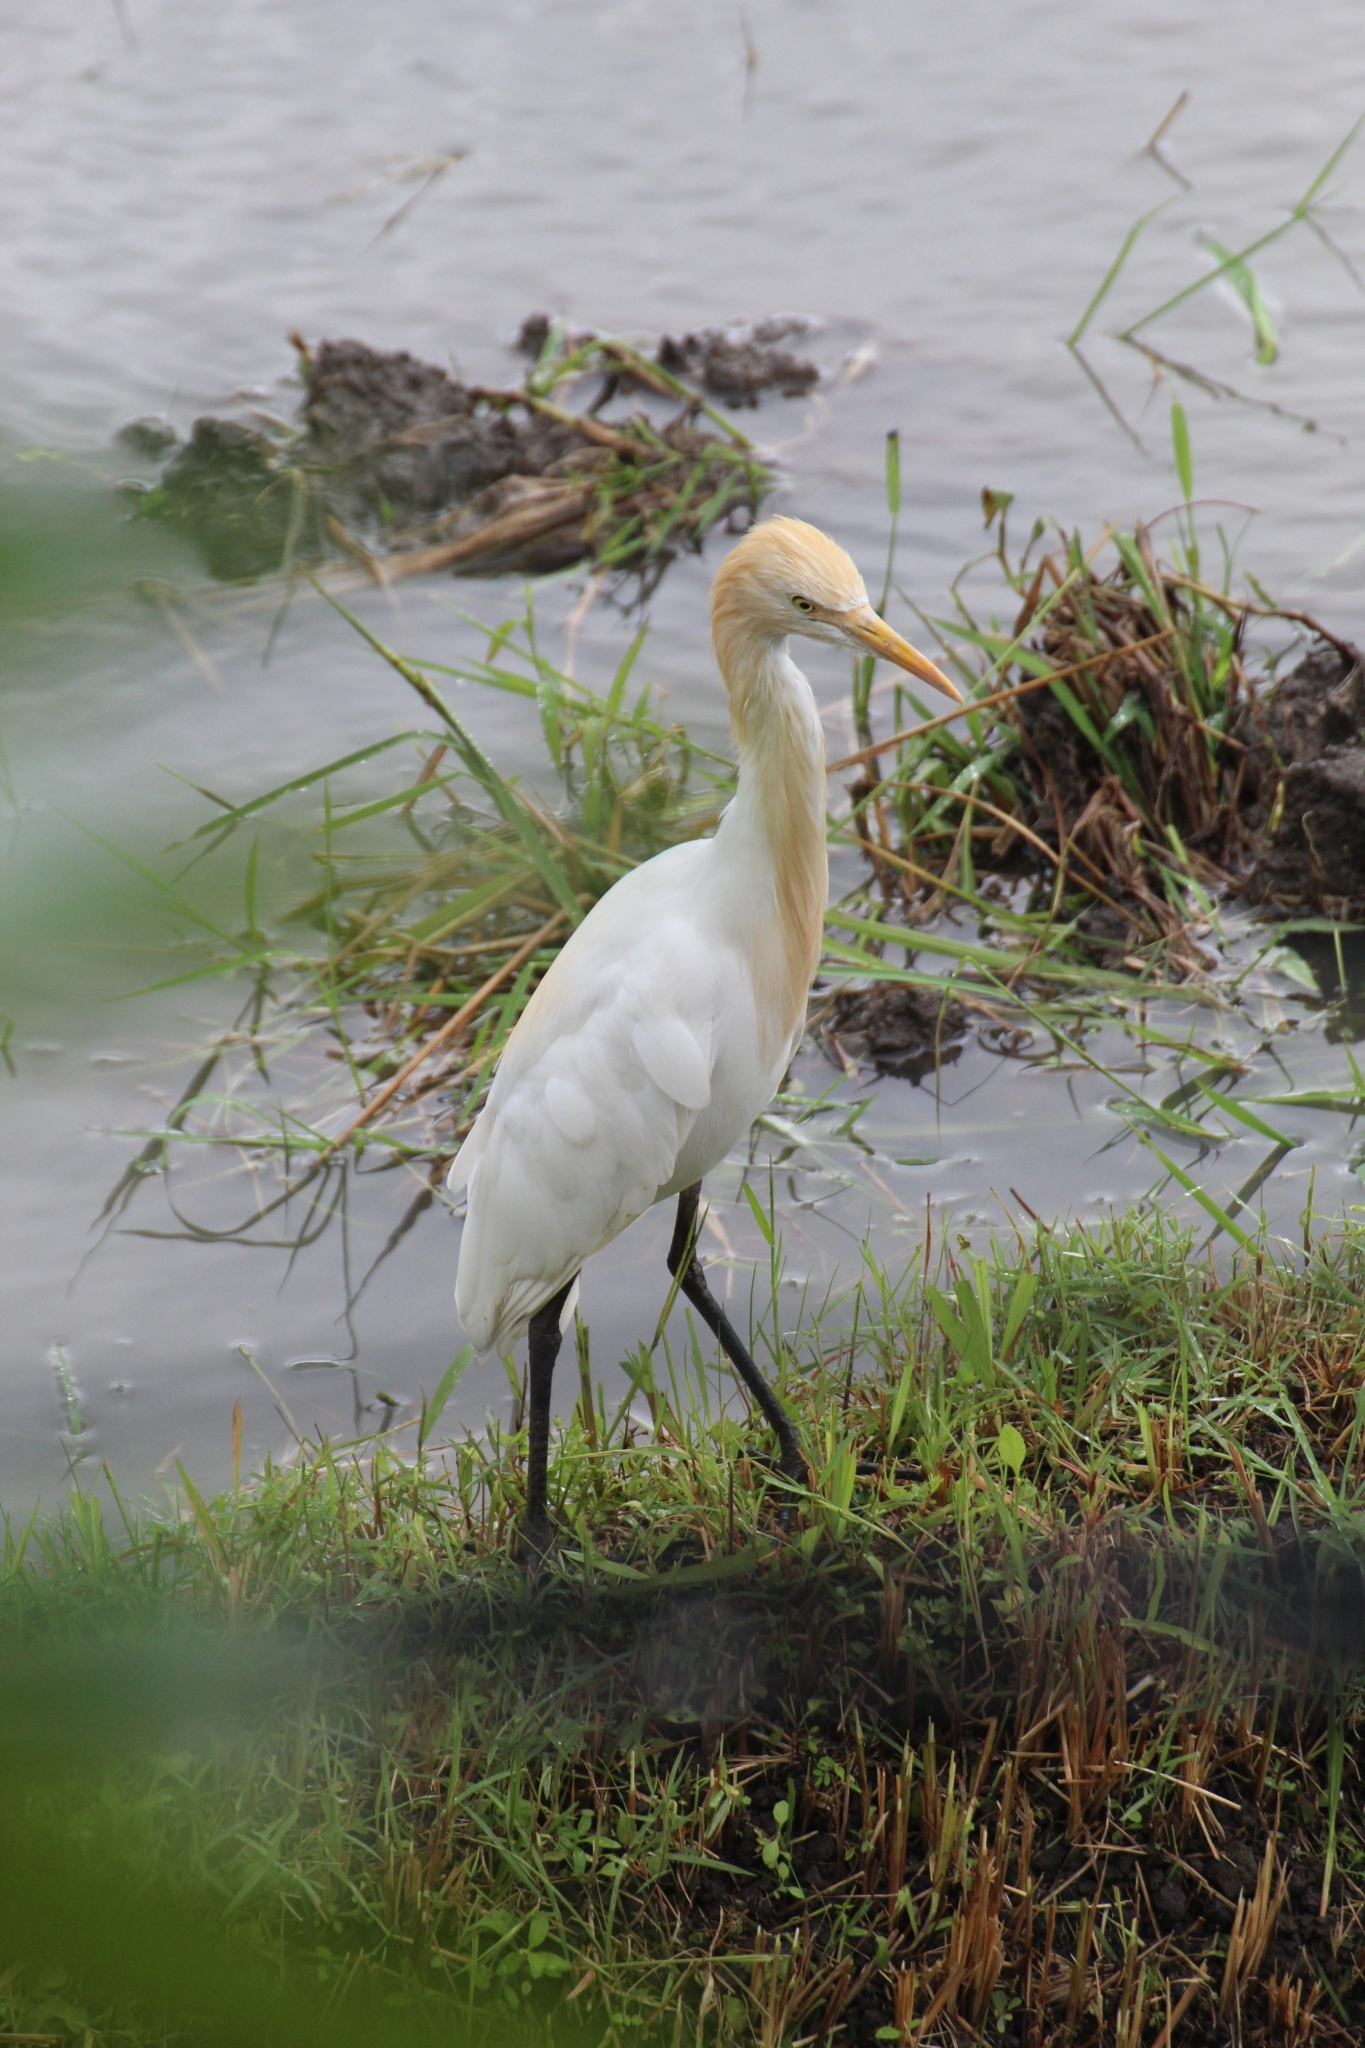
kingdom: Animalia
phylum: Chordata
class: Aves
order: Pelecaniformes
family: Ardeidae
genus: Bubulcus
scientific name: Bubulcus coromandus
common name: Eastern cattle egret
